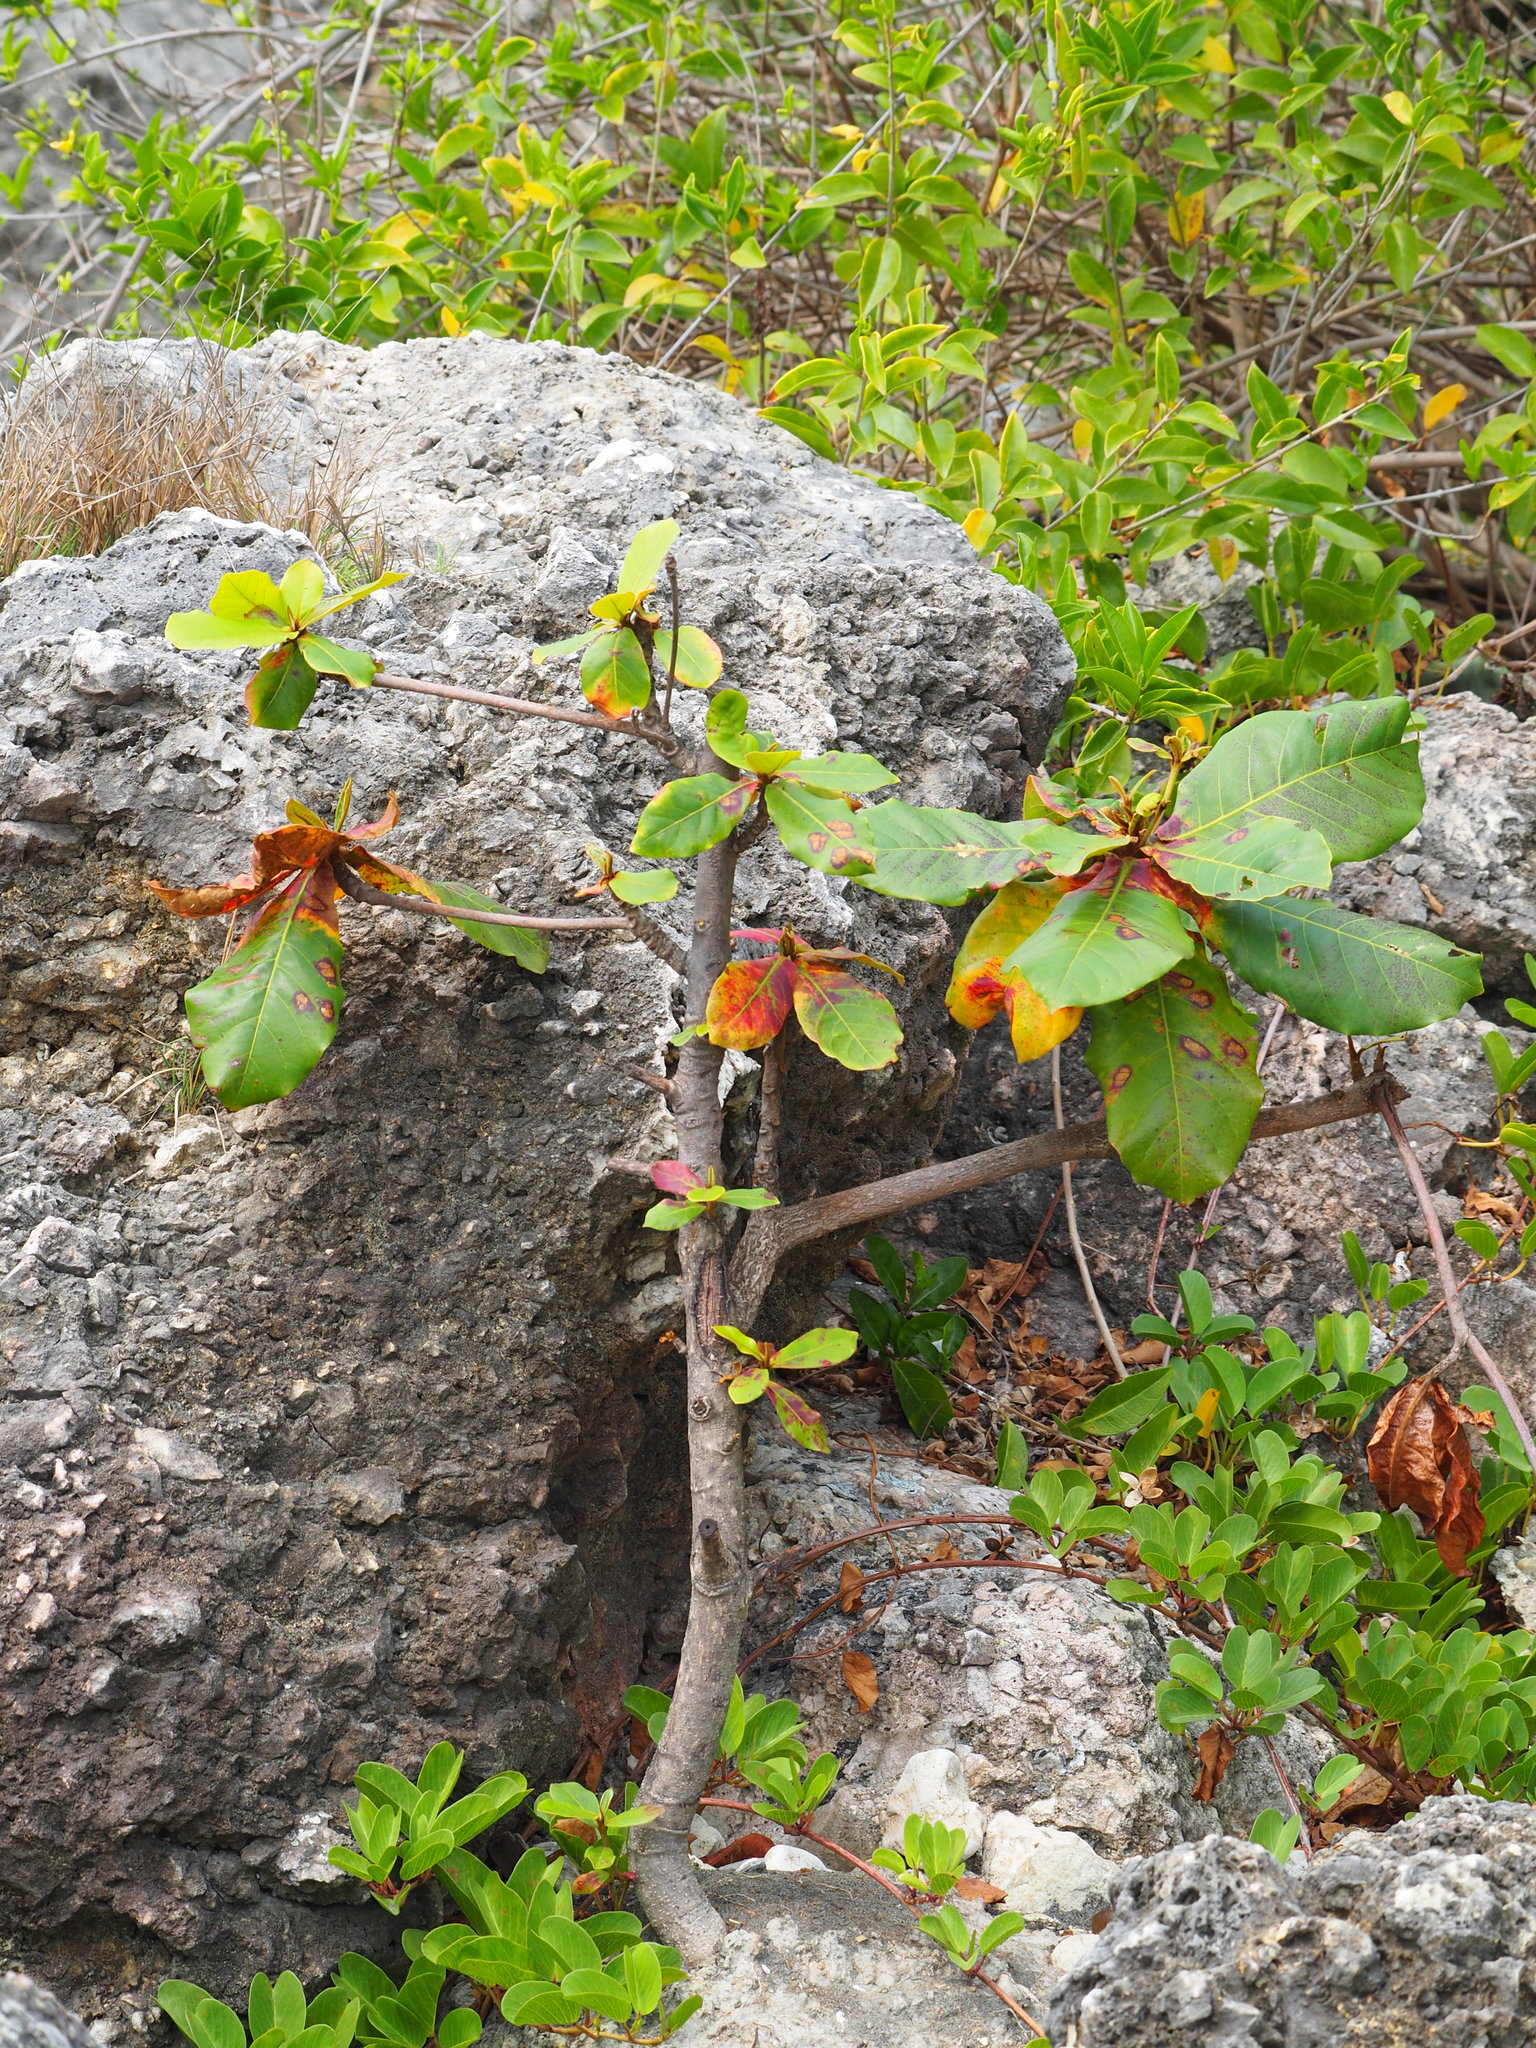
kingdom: Plantae
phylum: Tracheophyta
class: Magnoliopsida
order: Myrtales
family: Combretaceae
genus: Terminalia
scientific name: Terminalia catappa
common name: Tropical almond
